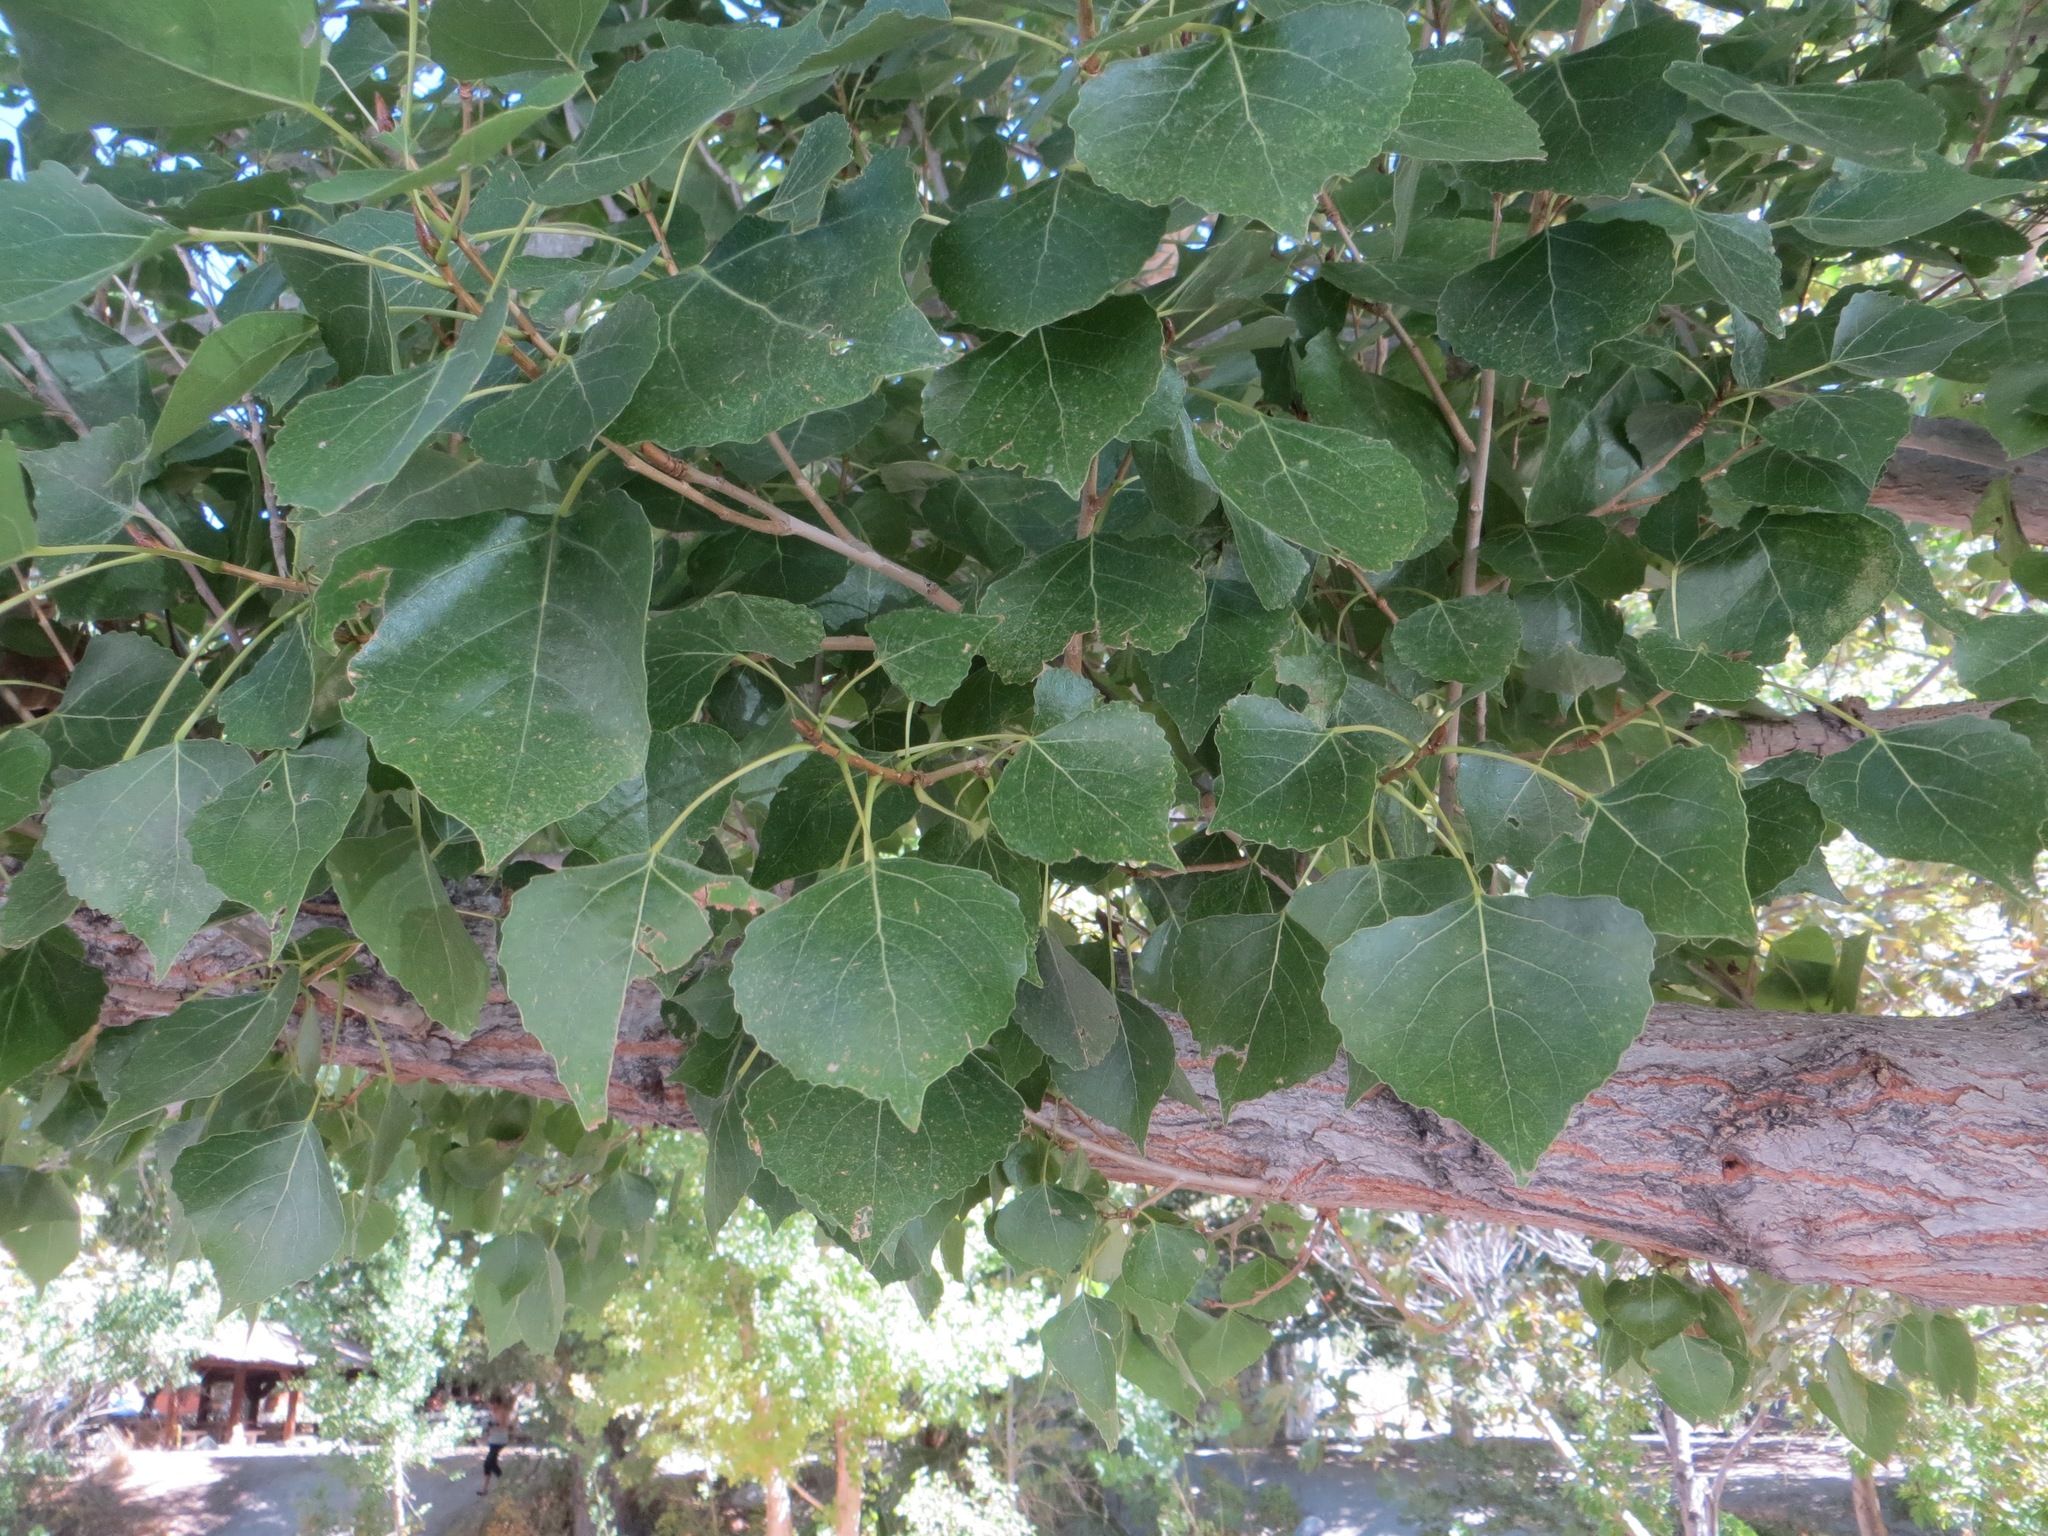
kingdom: Plantae
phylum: Tracheophyta
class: Magnoliopsida
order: Malpighiales
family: Salicaceae
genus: Populus
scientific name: Populus fremontii
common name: Fremont's cottonwood
